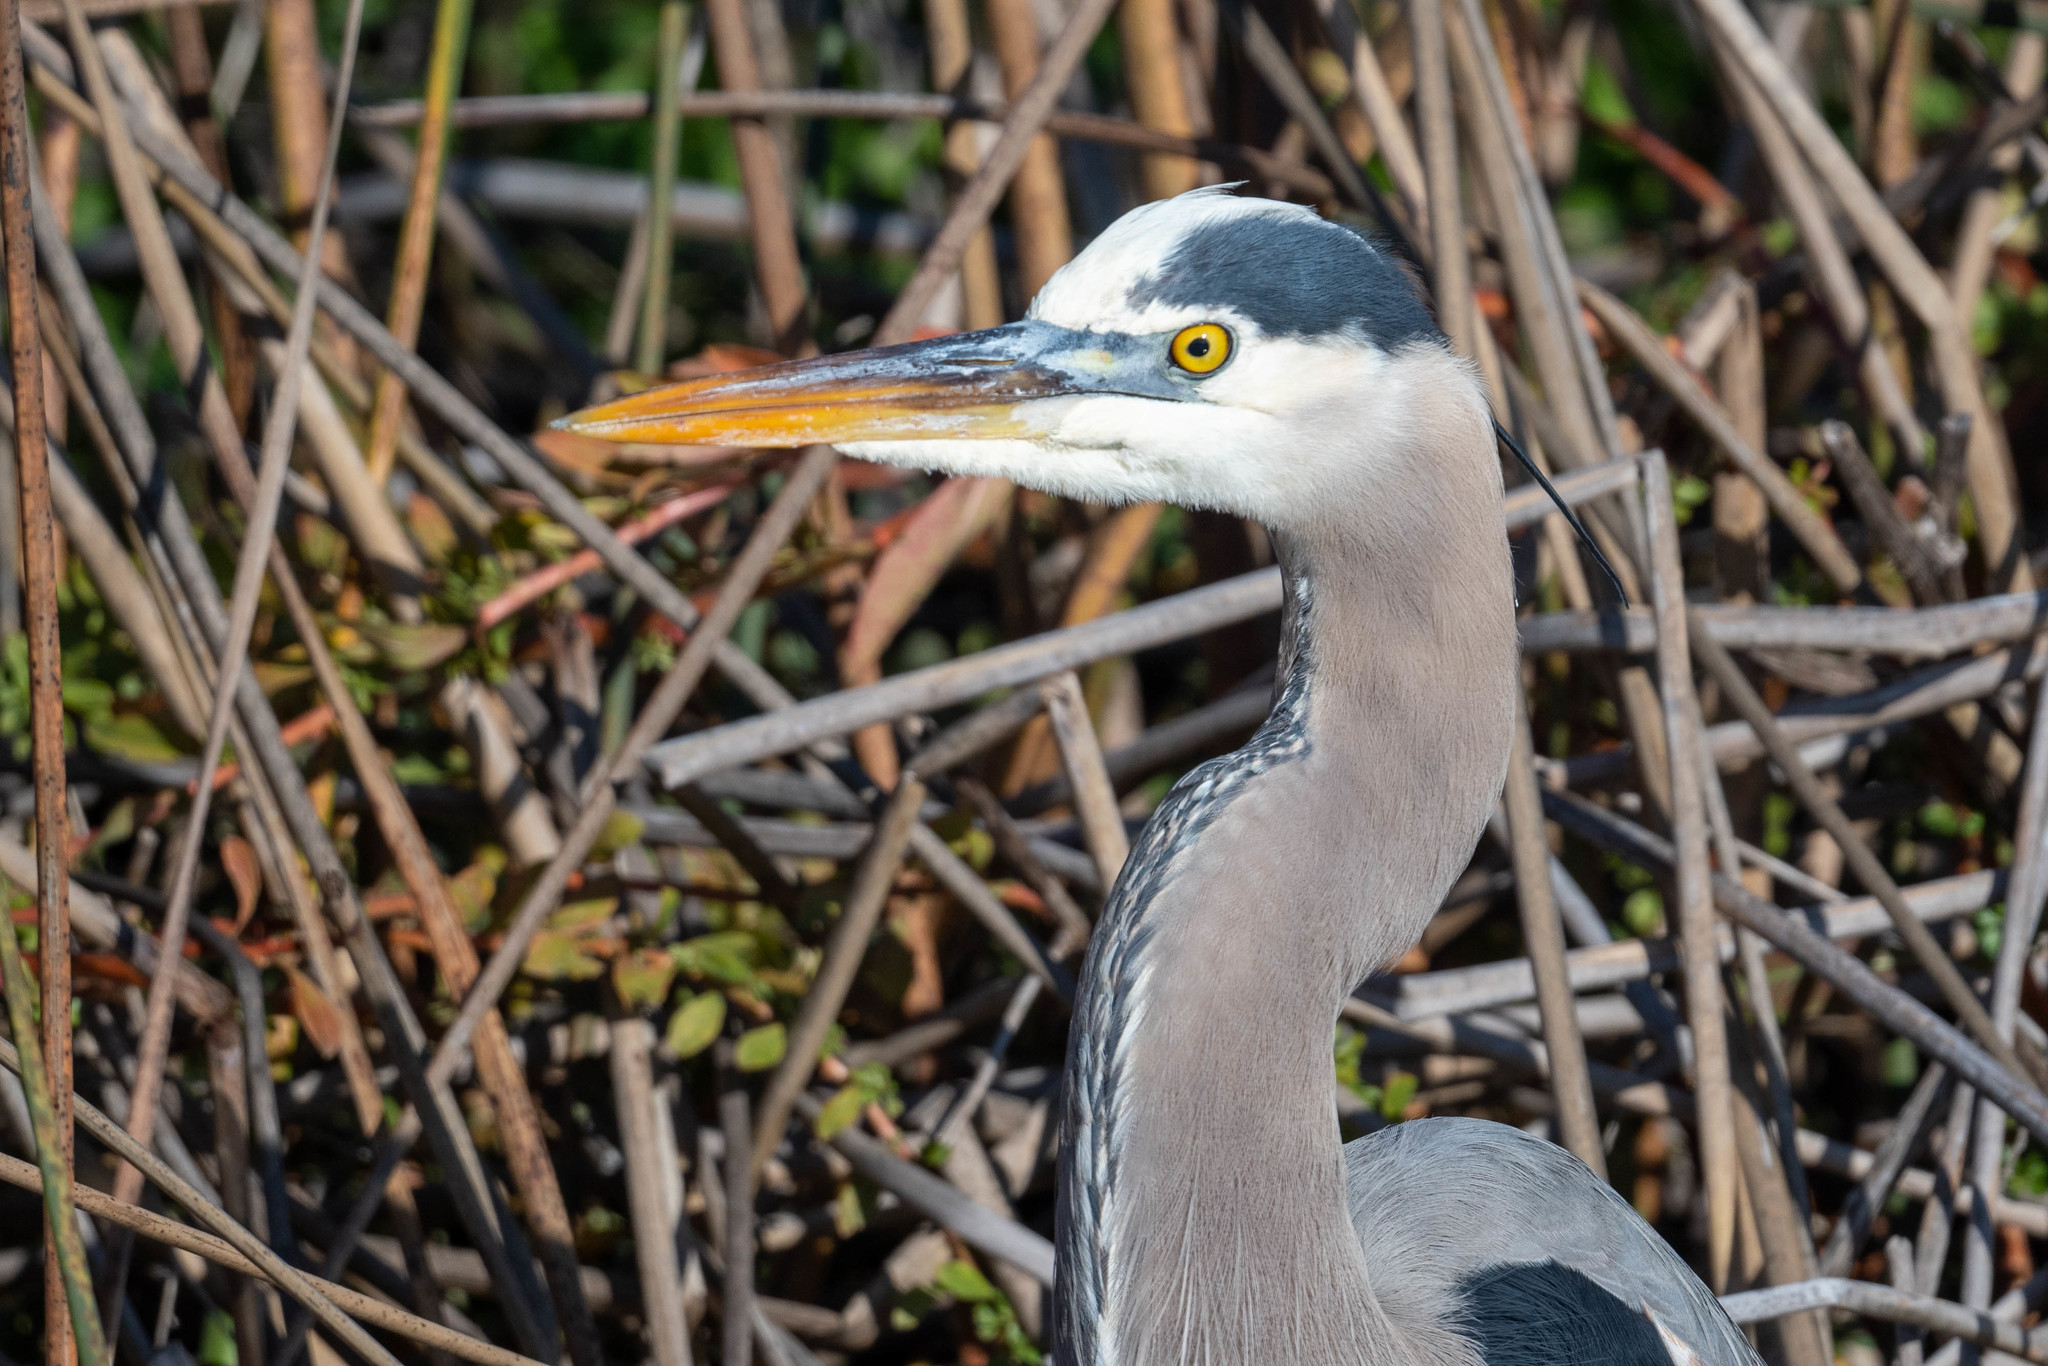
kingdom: Animalia
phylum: Chordata
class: Aves
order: Pelecaniformes
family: Ardeidae
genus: Ardea
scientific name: Ardea herodias
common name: Great blue heron
